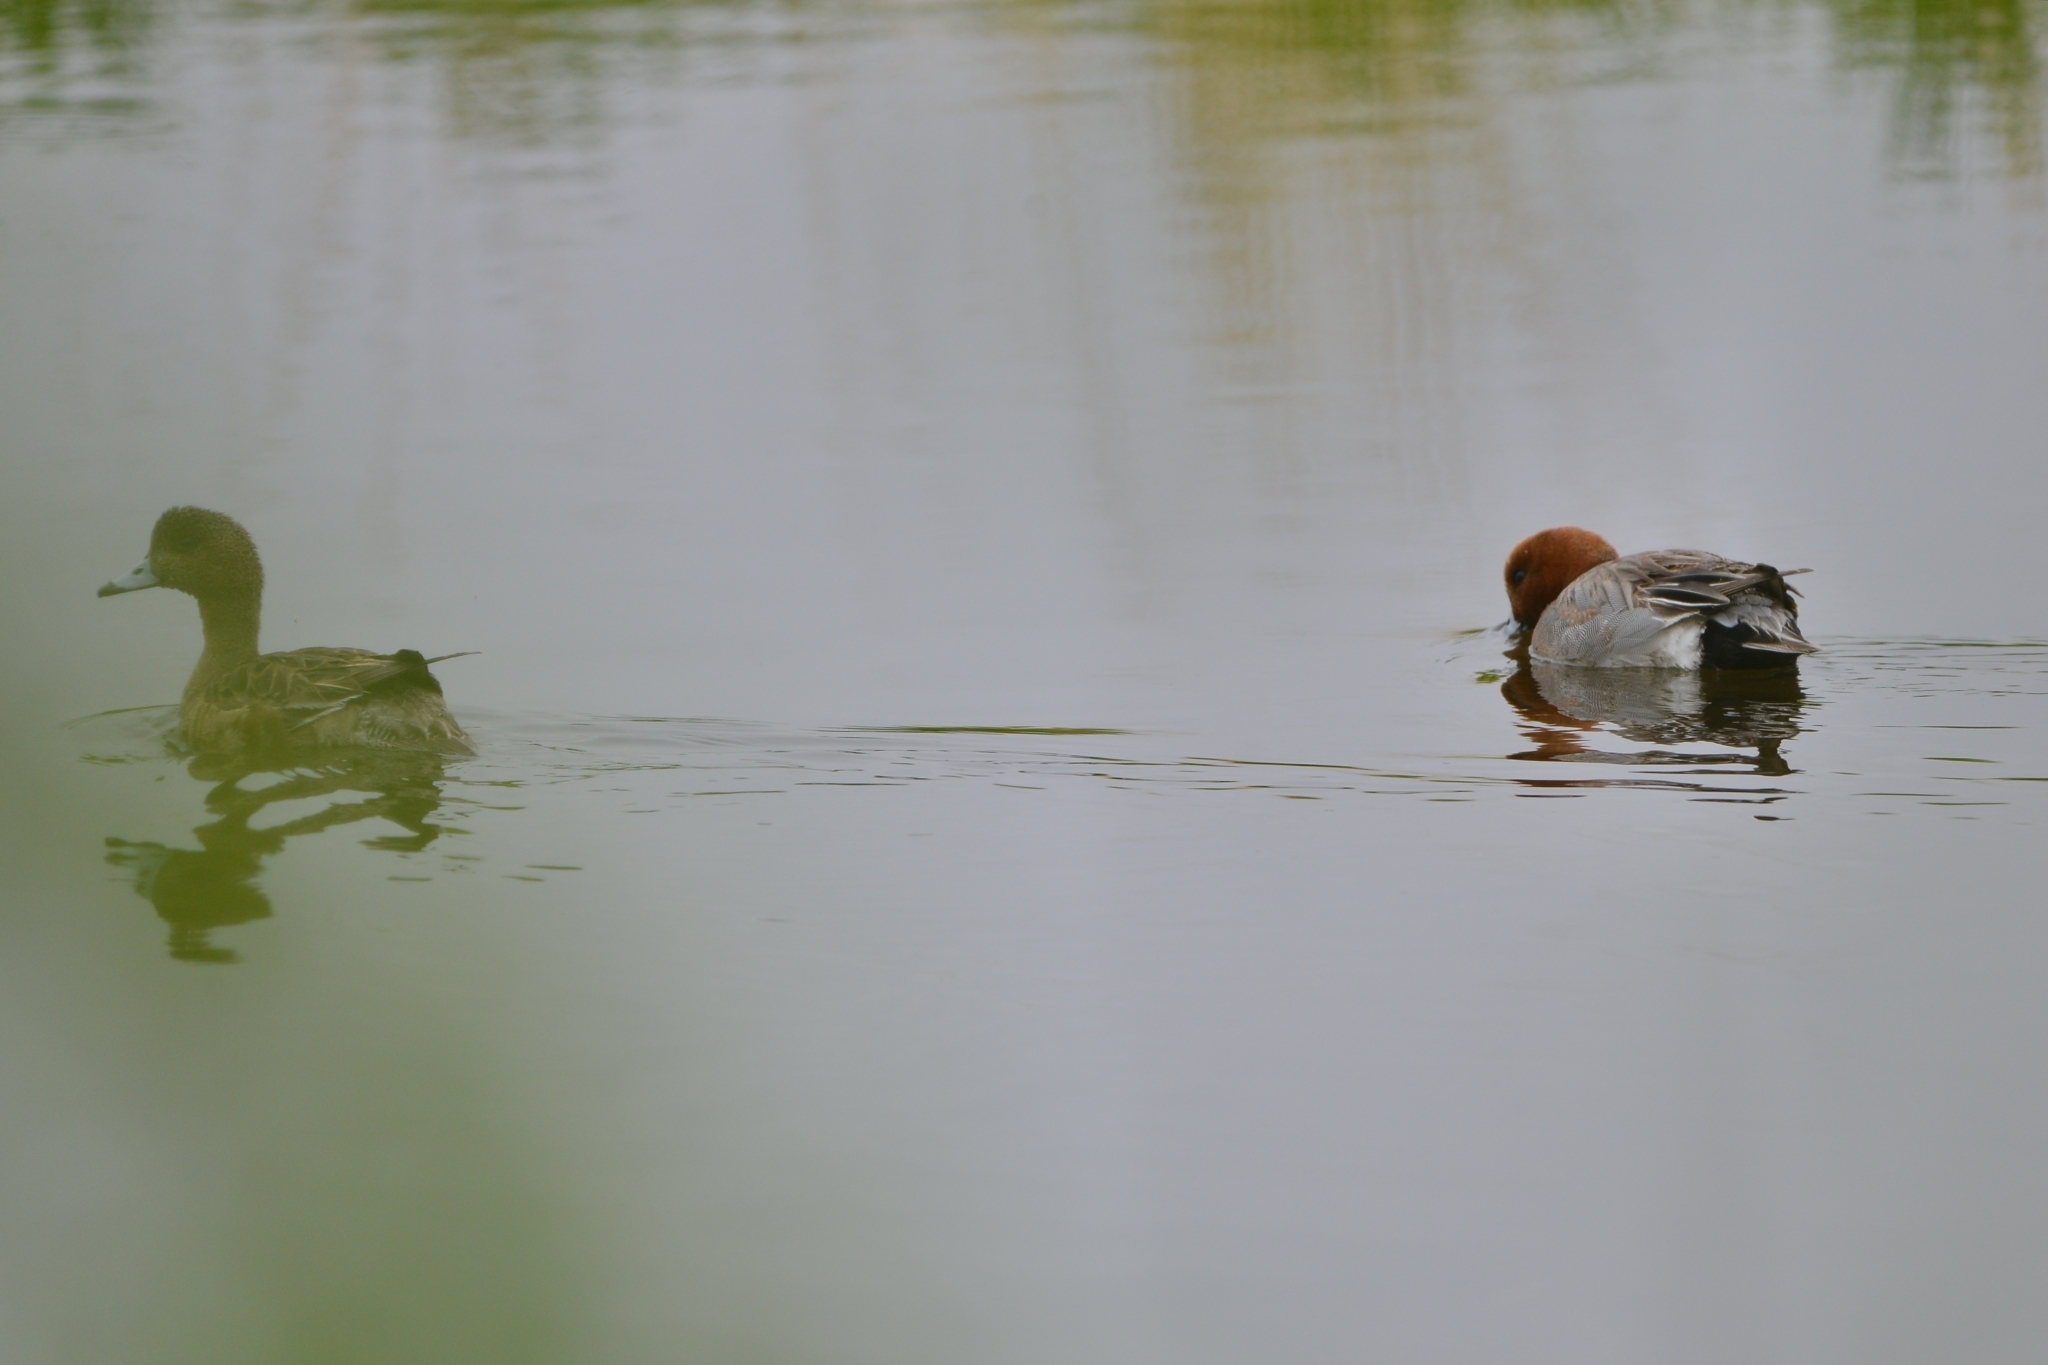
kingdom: Animalia
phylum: Chordata
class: Aves
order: Anseriformes
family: Anatidae
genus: Mareca
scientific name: Mareca penelope
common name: Eurasian wigeon
